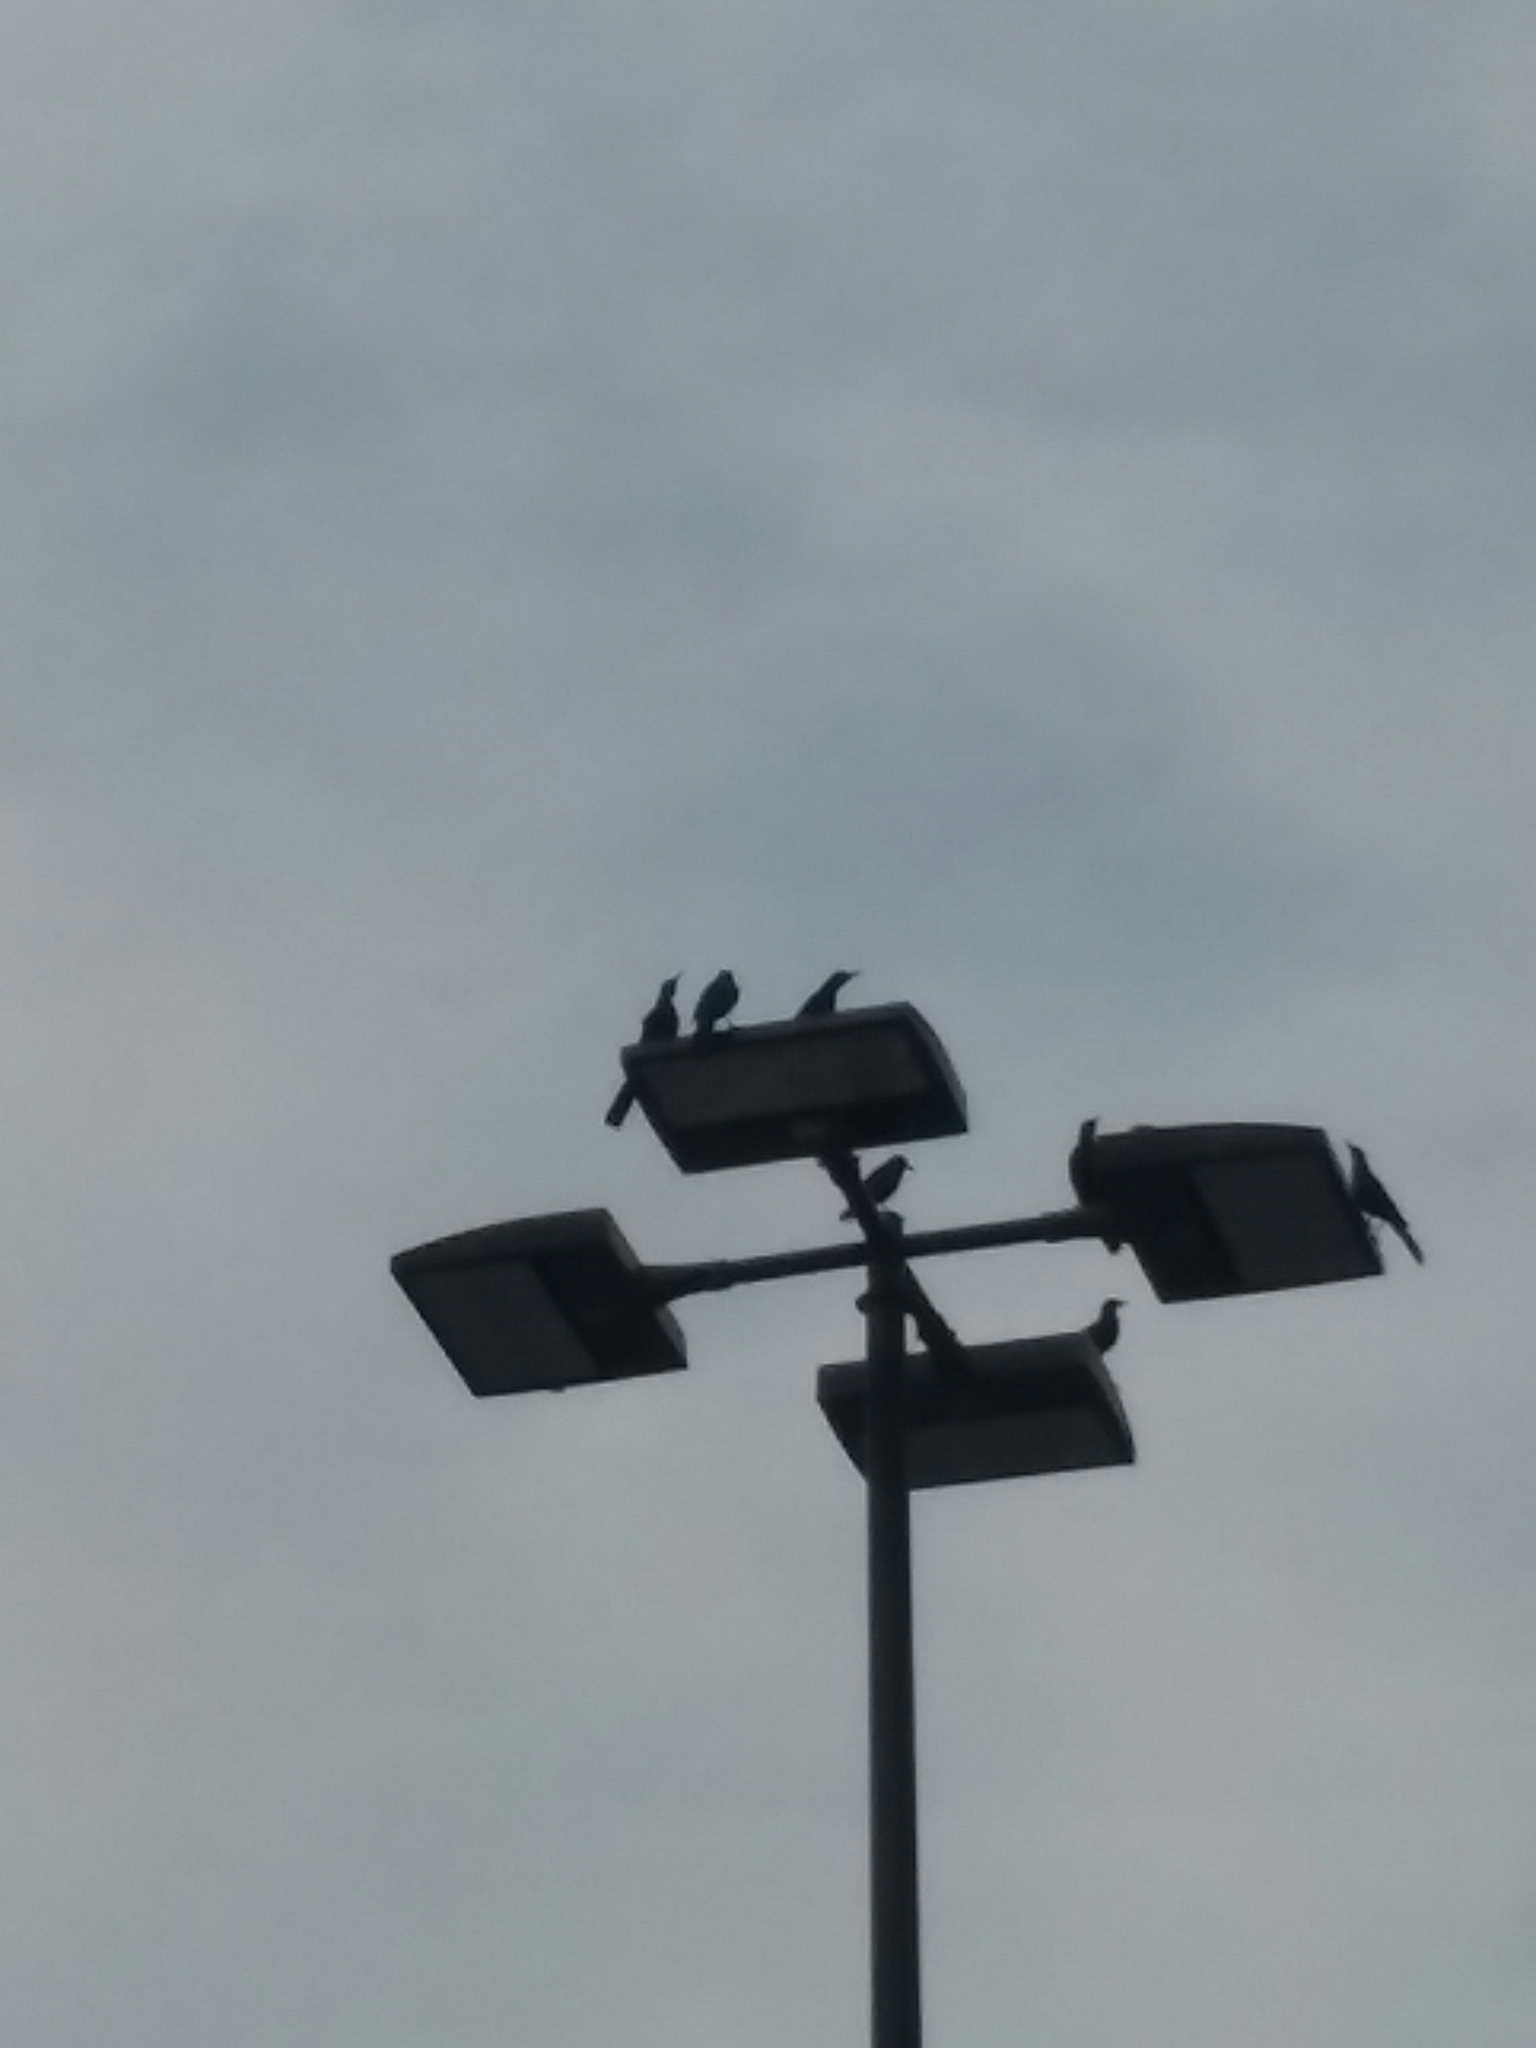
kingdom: Animalia
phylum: Chordata
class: Aves
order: Passeriformes
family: Icteridae
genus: Quiscalus
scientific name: Quiscalus major
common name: Boat-tailed grackle
